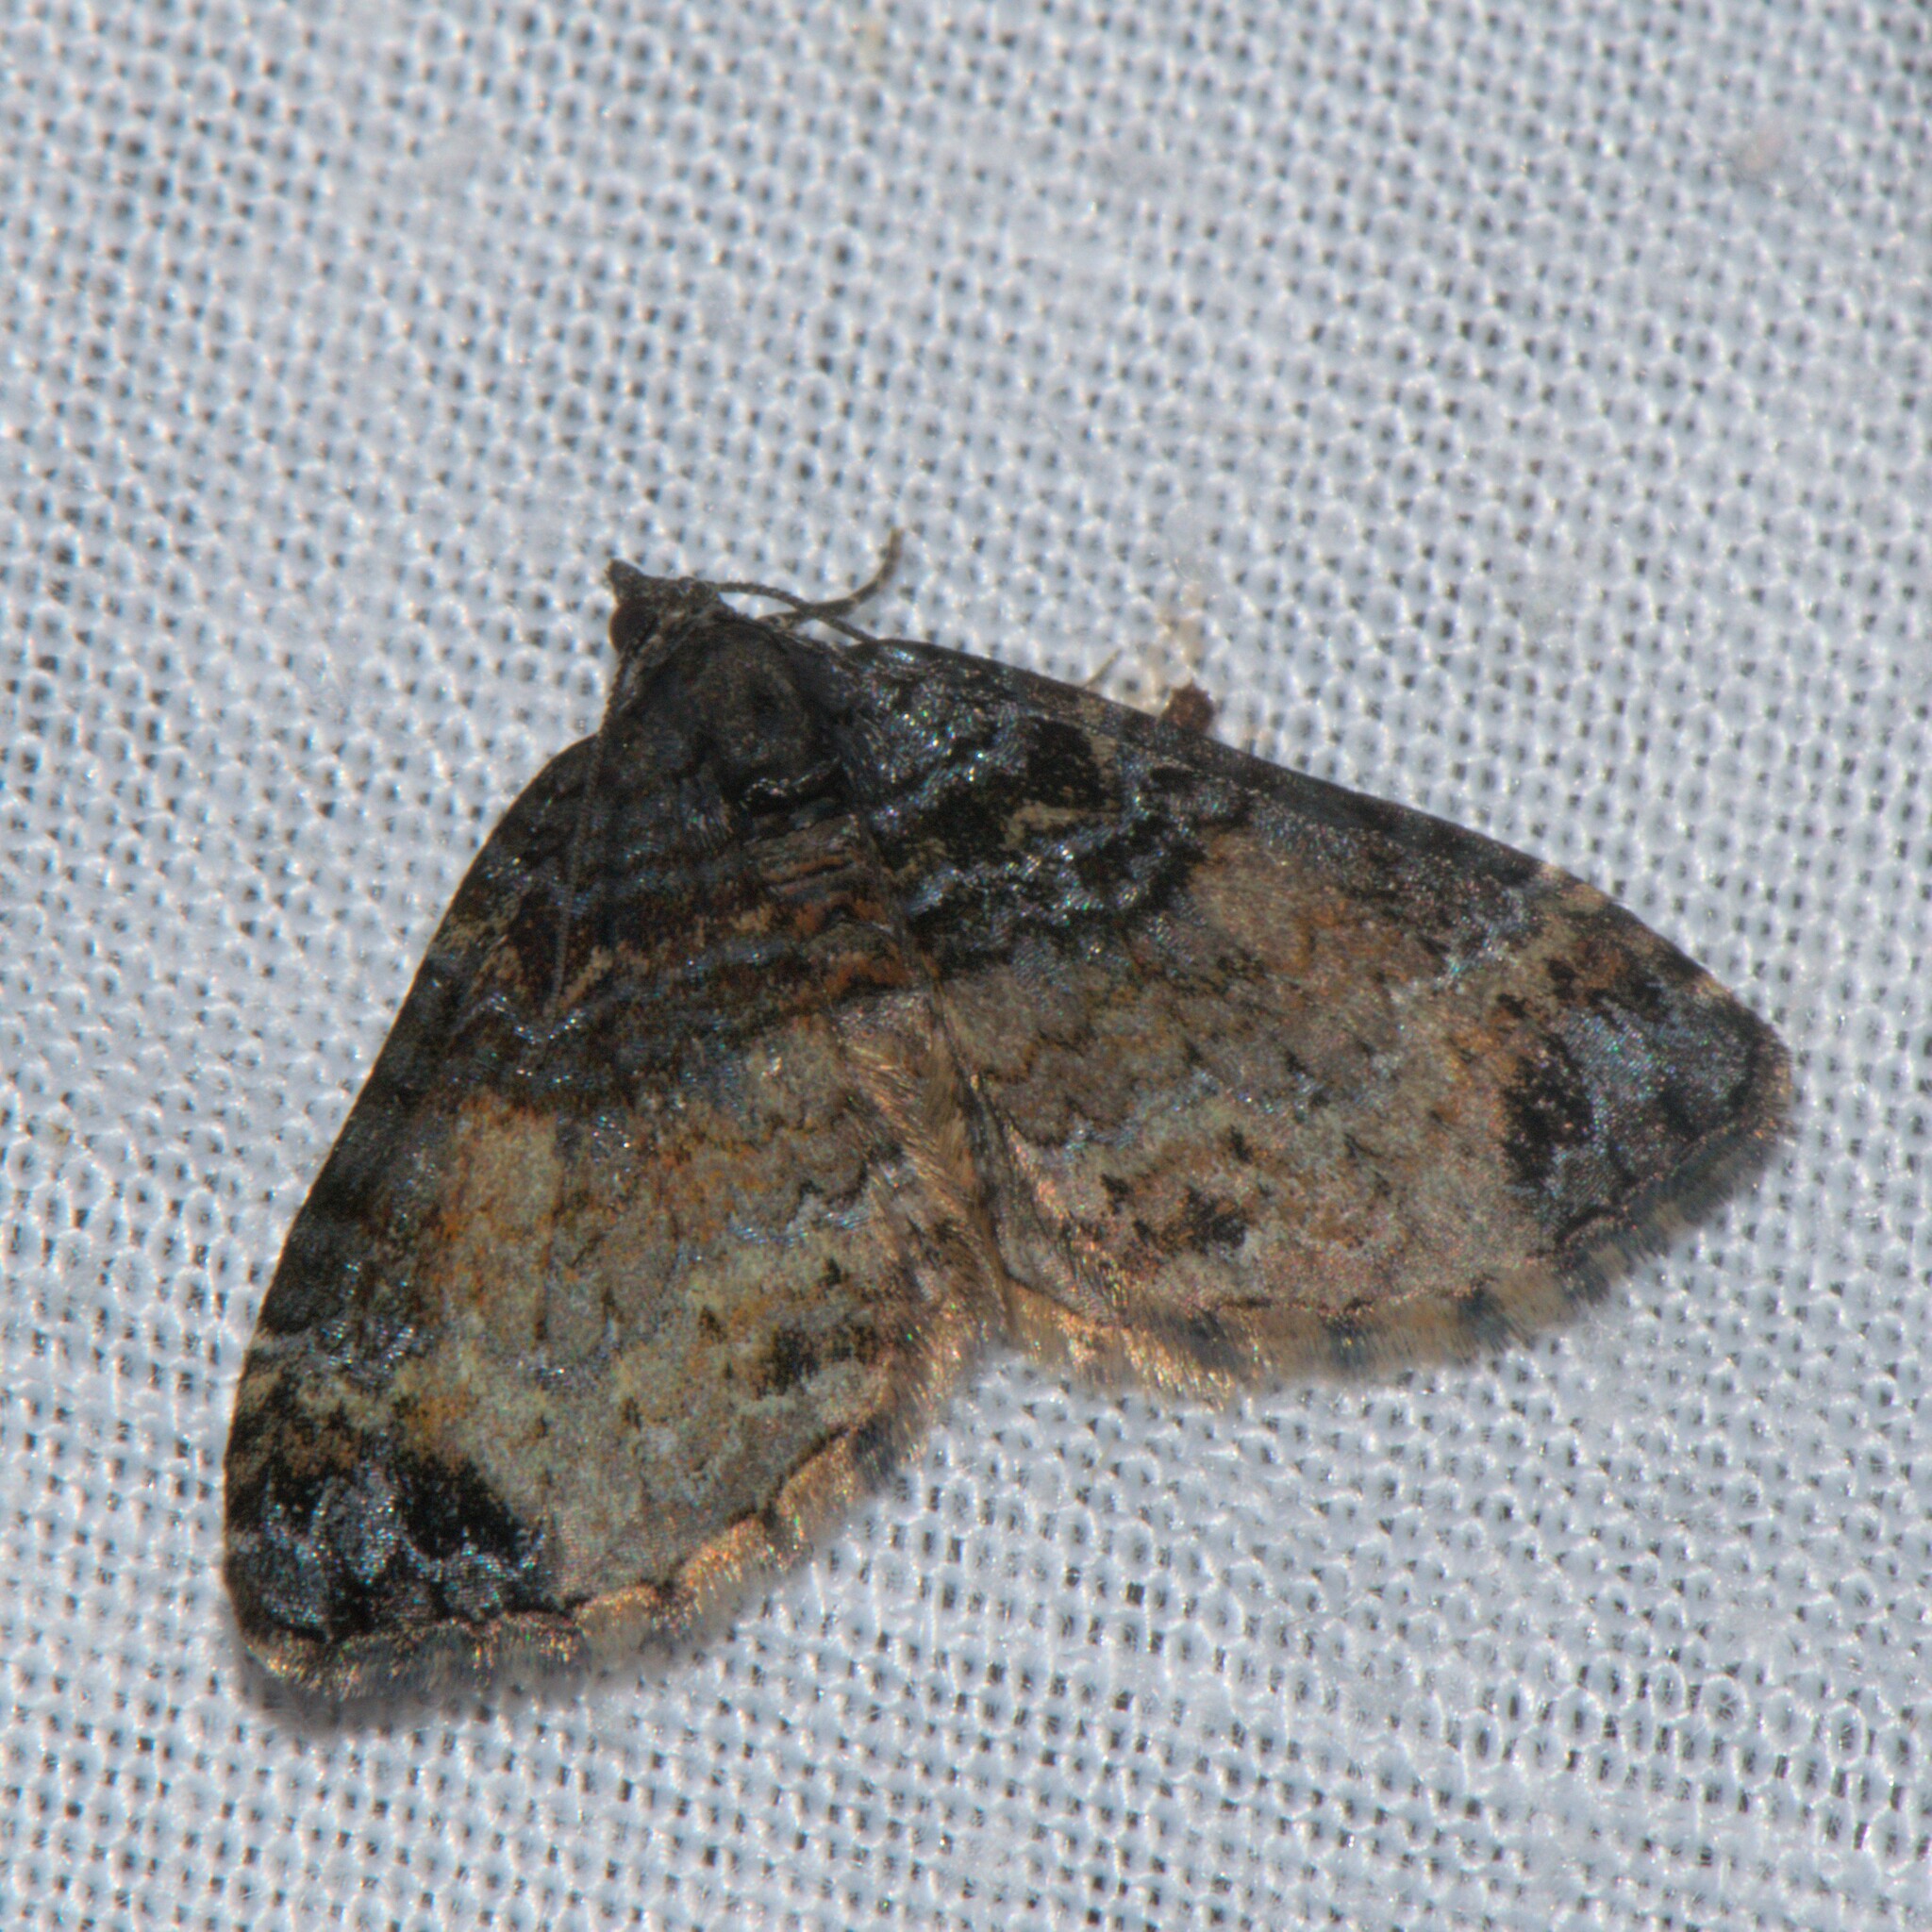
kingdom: Animalia
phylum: Arthropoda
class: Insecta
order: Lepidoptera
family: Geometridae
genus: Nebula
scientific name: Nebula
